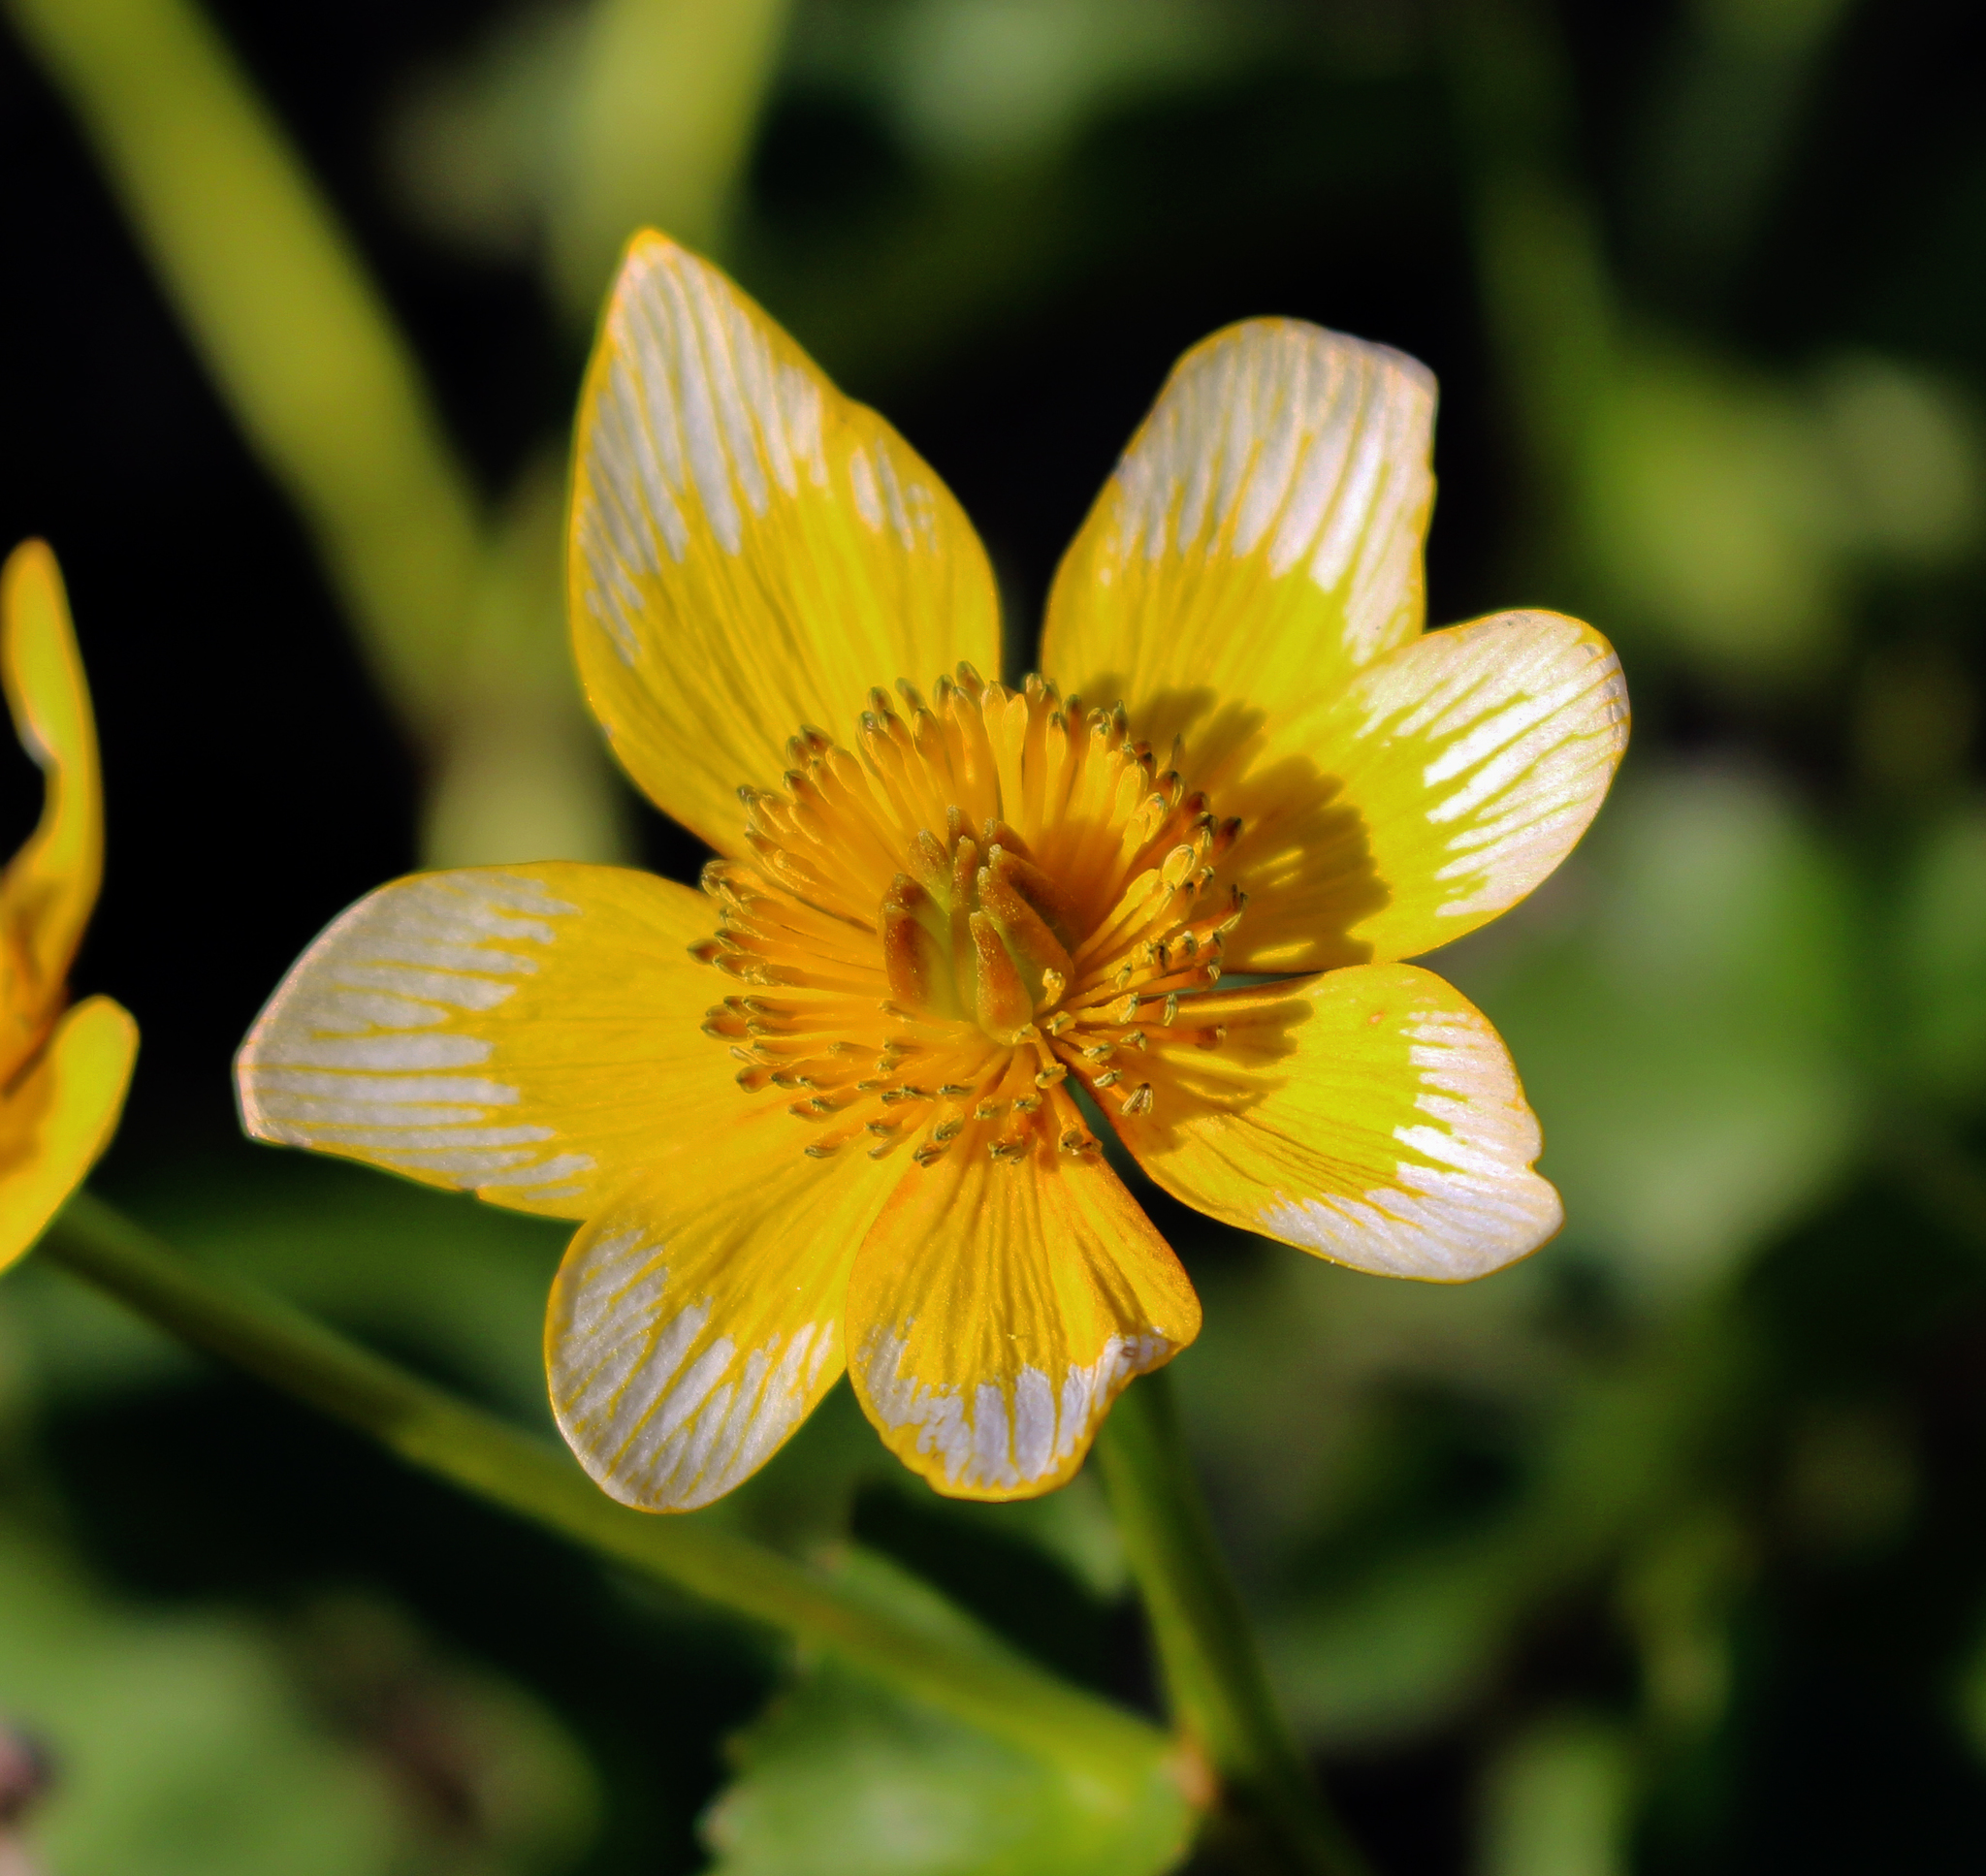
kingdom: Plantae
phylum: Tracheophyta
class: Magnoliopsida
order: Ranunculales
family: Ranunculaceae
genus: Caltha
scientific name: Caltha palustris
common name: Marsh marigold
